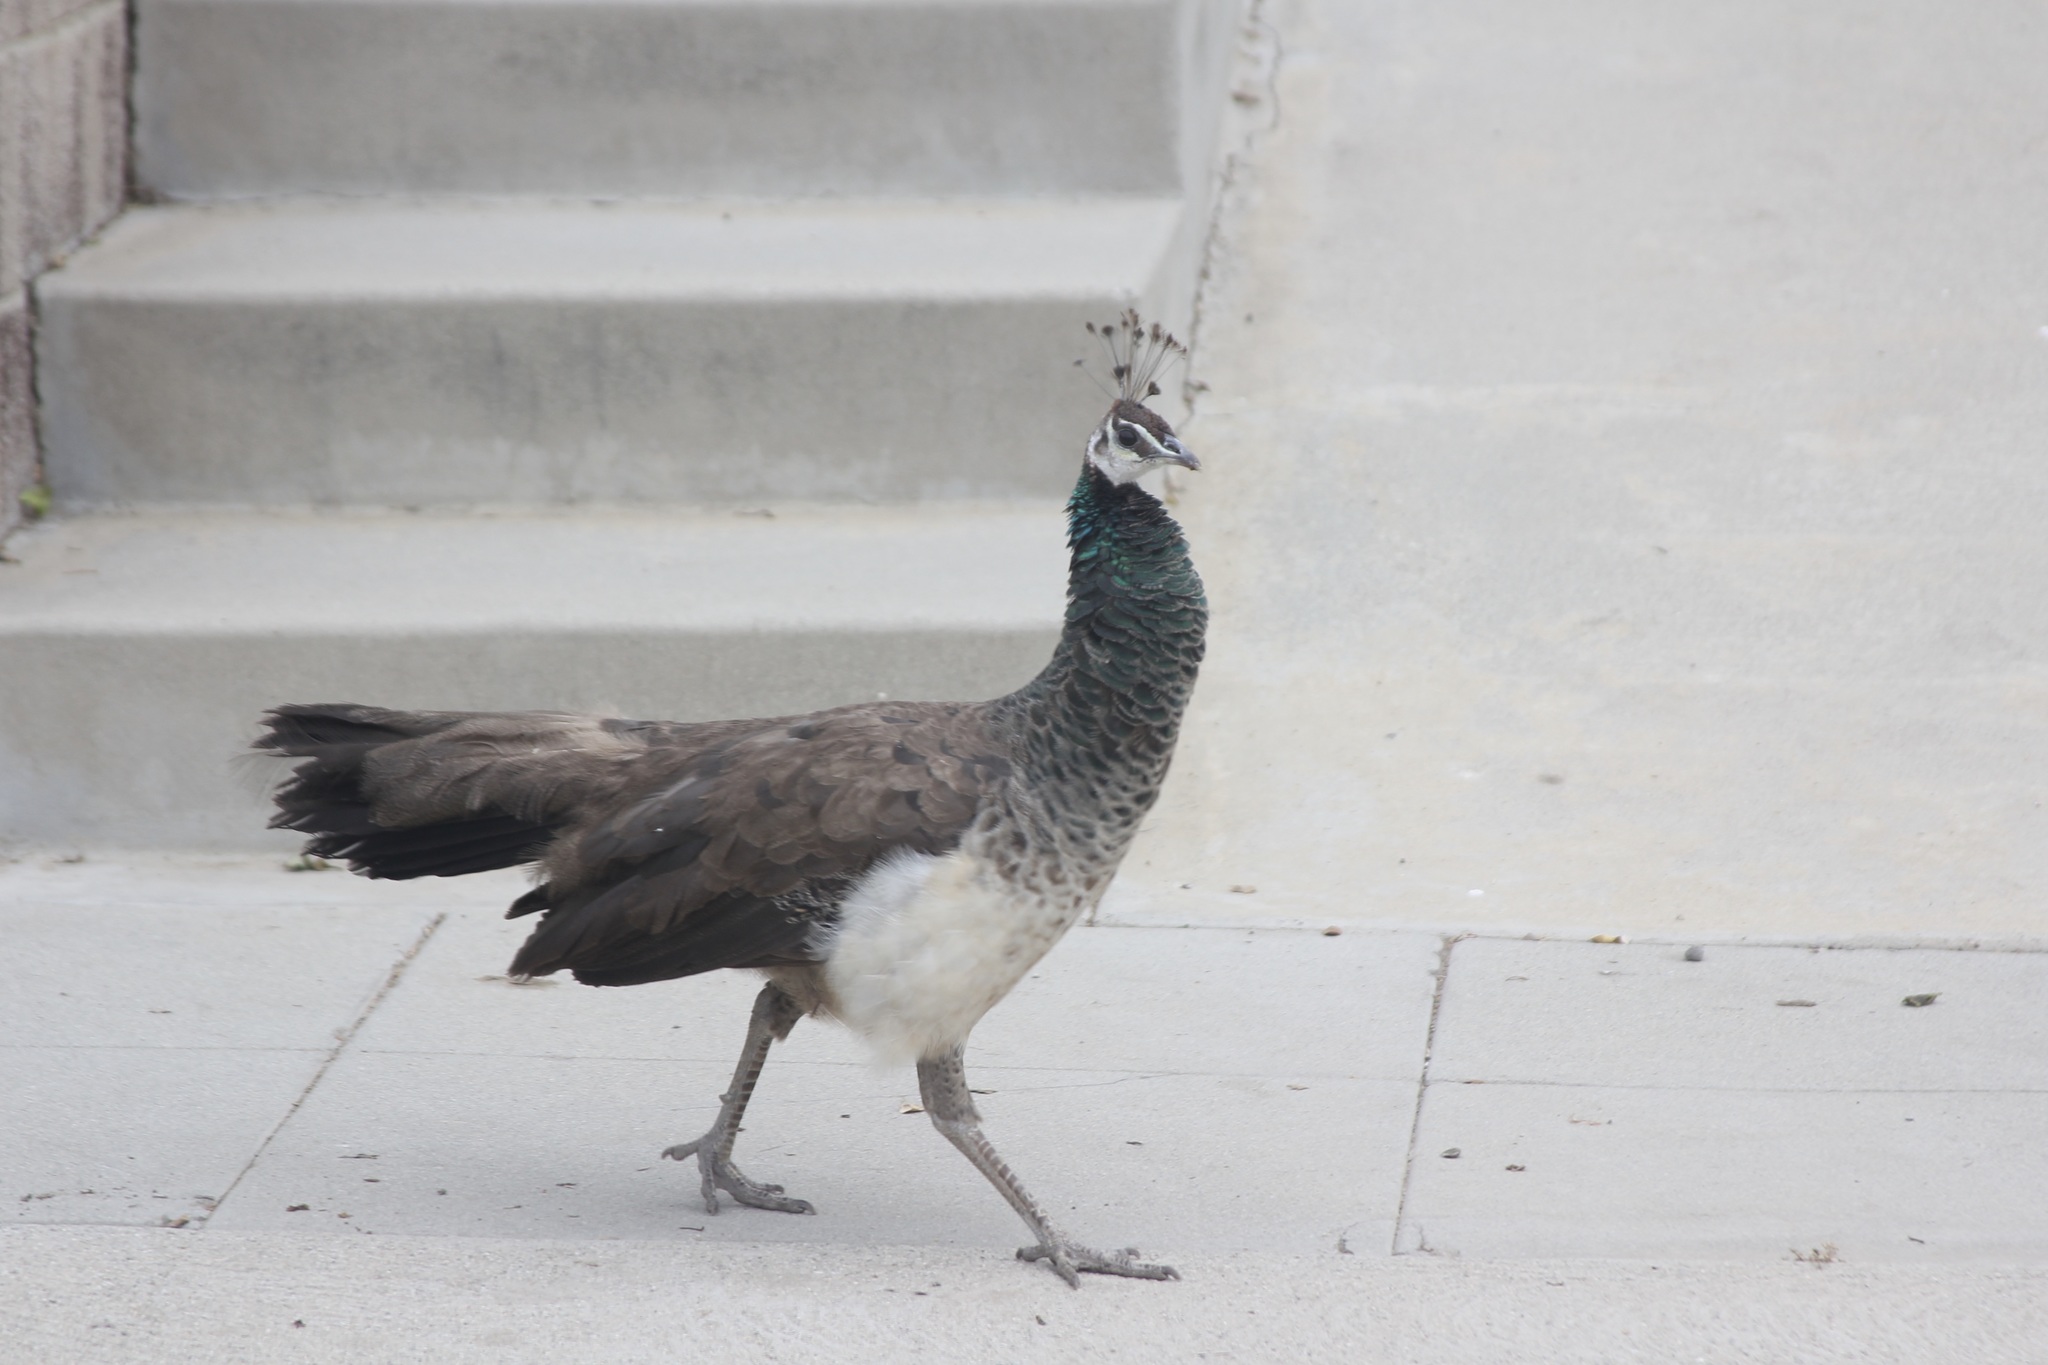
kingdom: Animalia
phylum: Chordata
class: Aves
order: Galliformes
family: Phasianidae
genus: Pavo
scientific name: Pavo cristatus
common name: Indian peafowl
